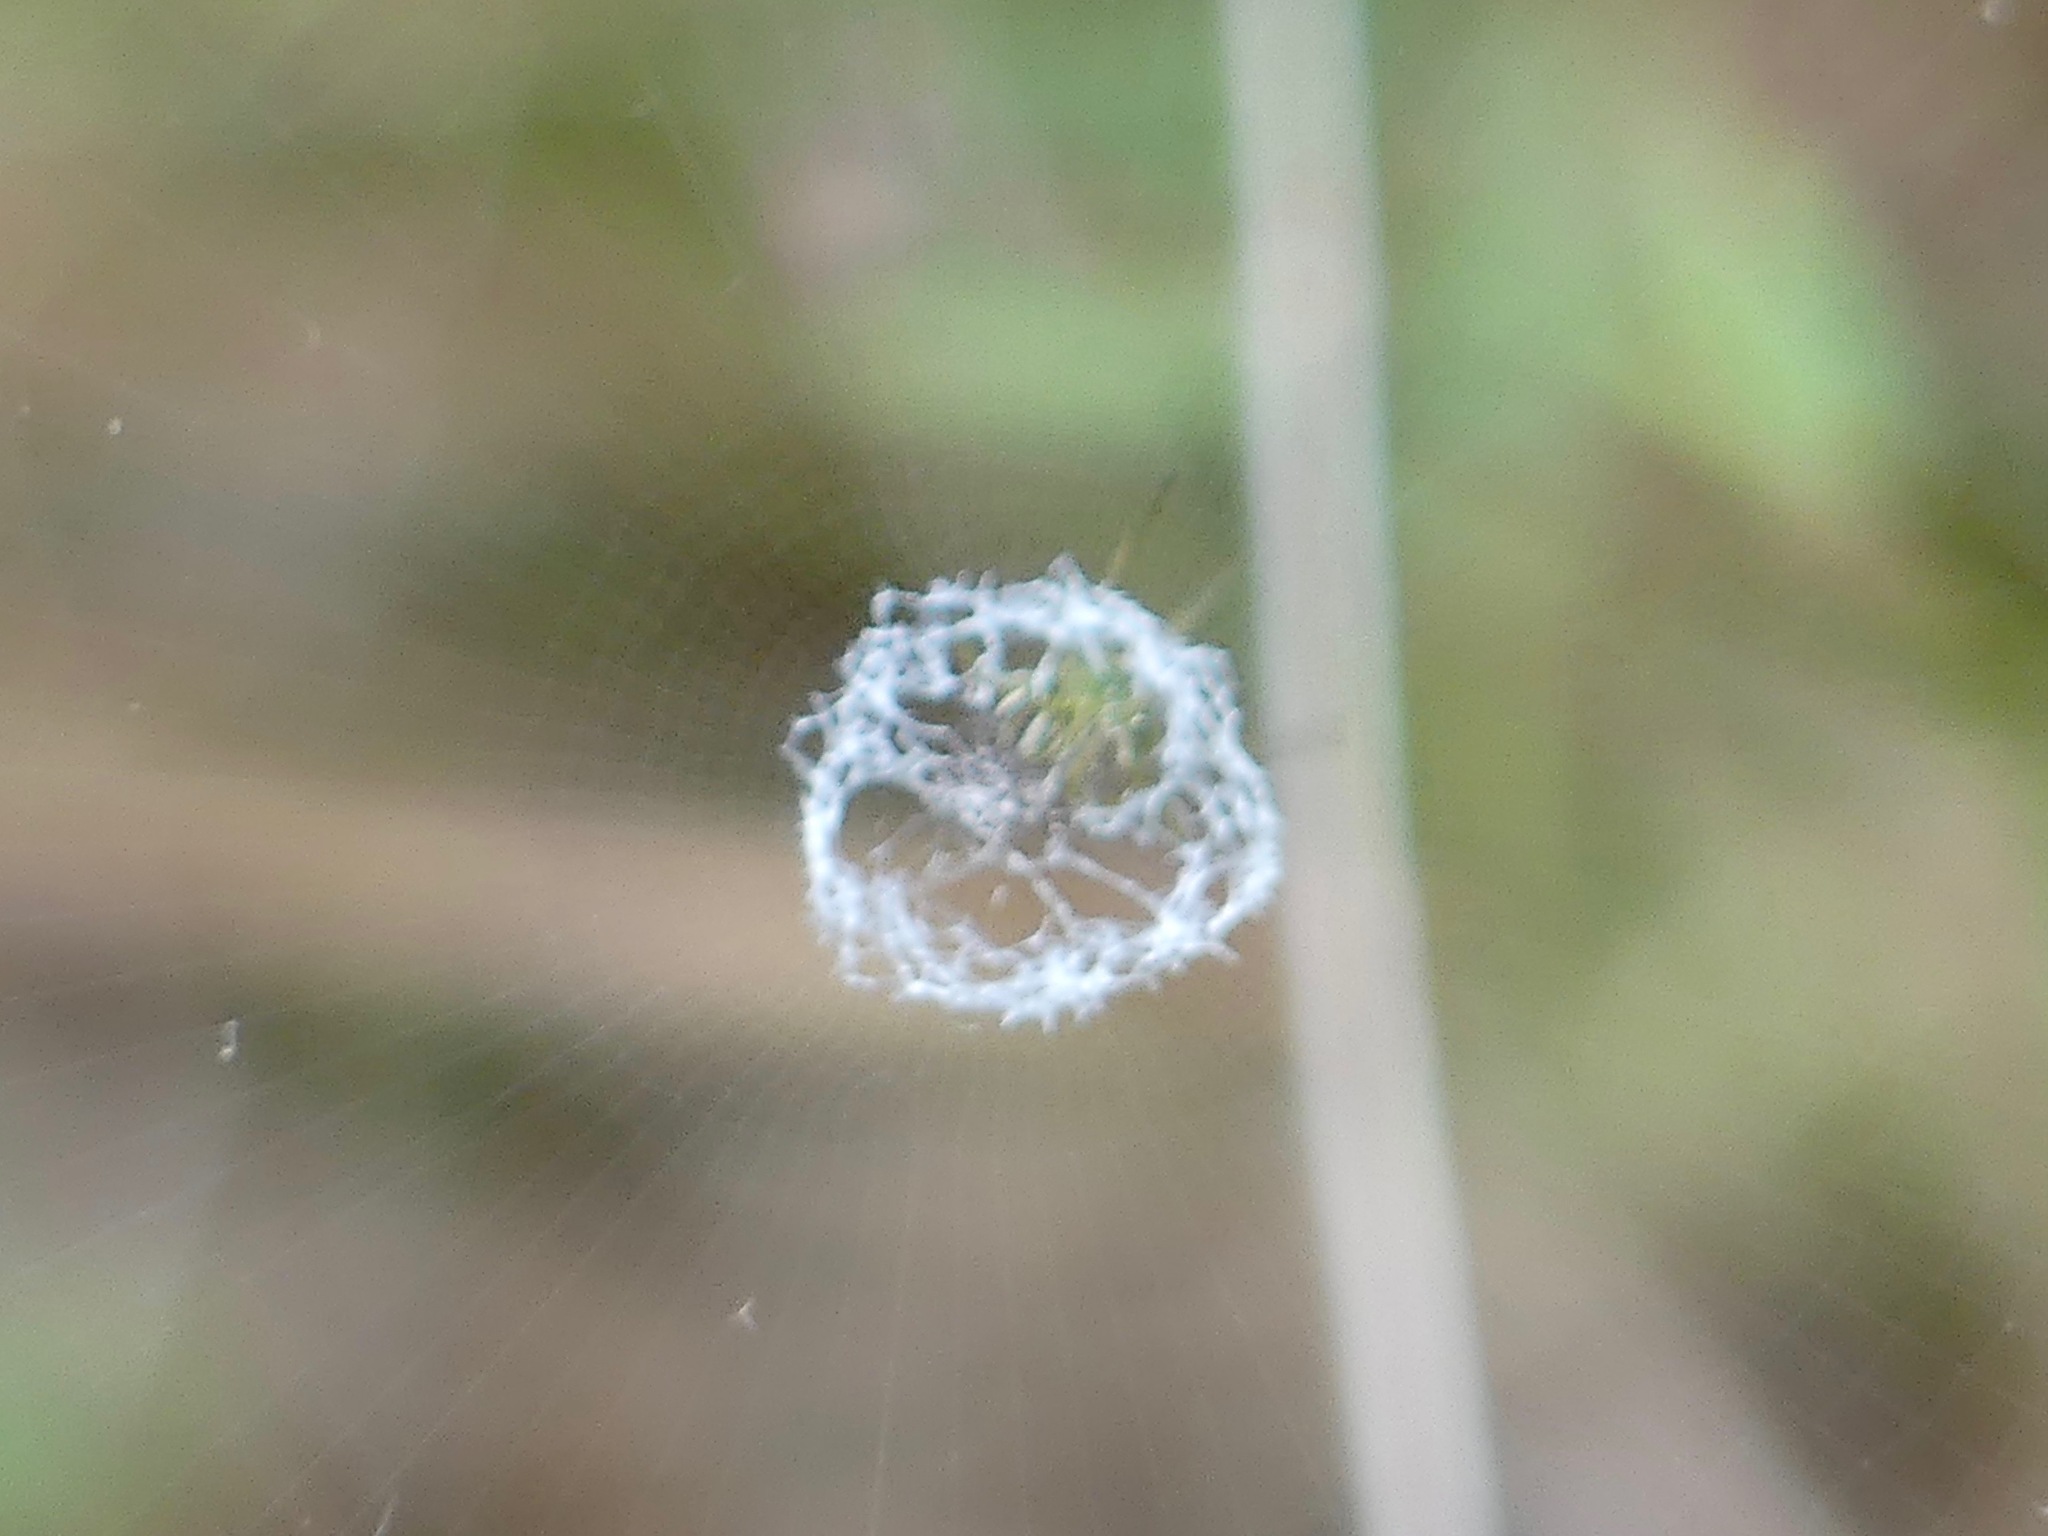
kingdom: Animalia
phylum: Arthropoda
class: Arachnida
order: Araneae
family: Araneidae
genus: Mangora
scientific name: Mangora gibberosa
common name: Lined orbweaver
